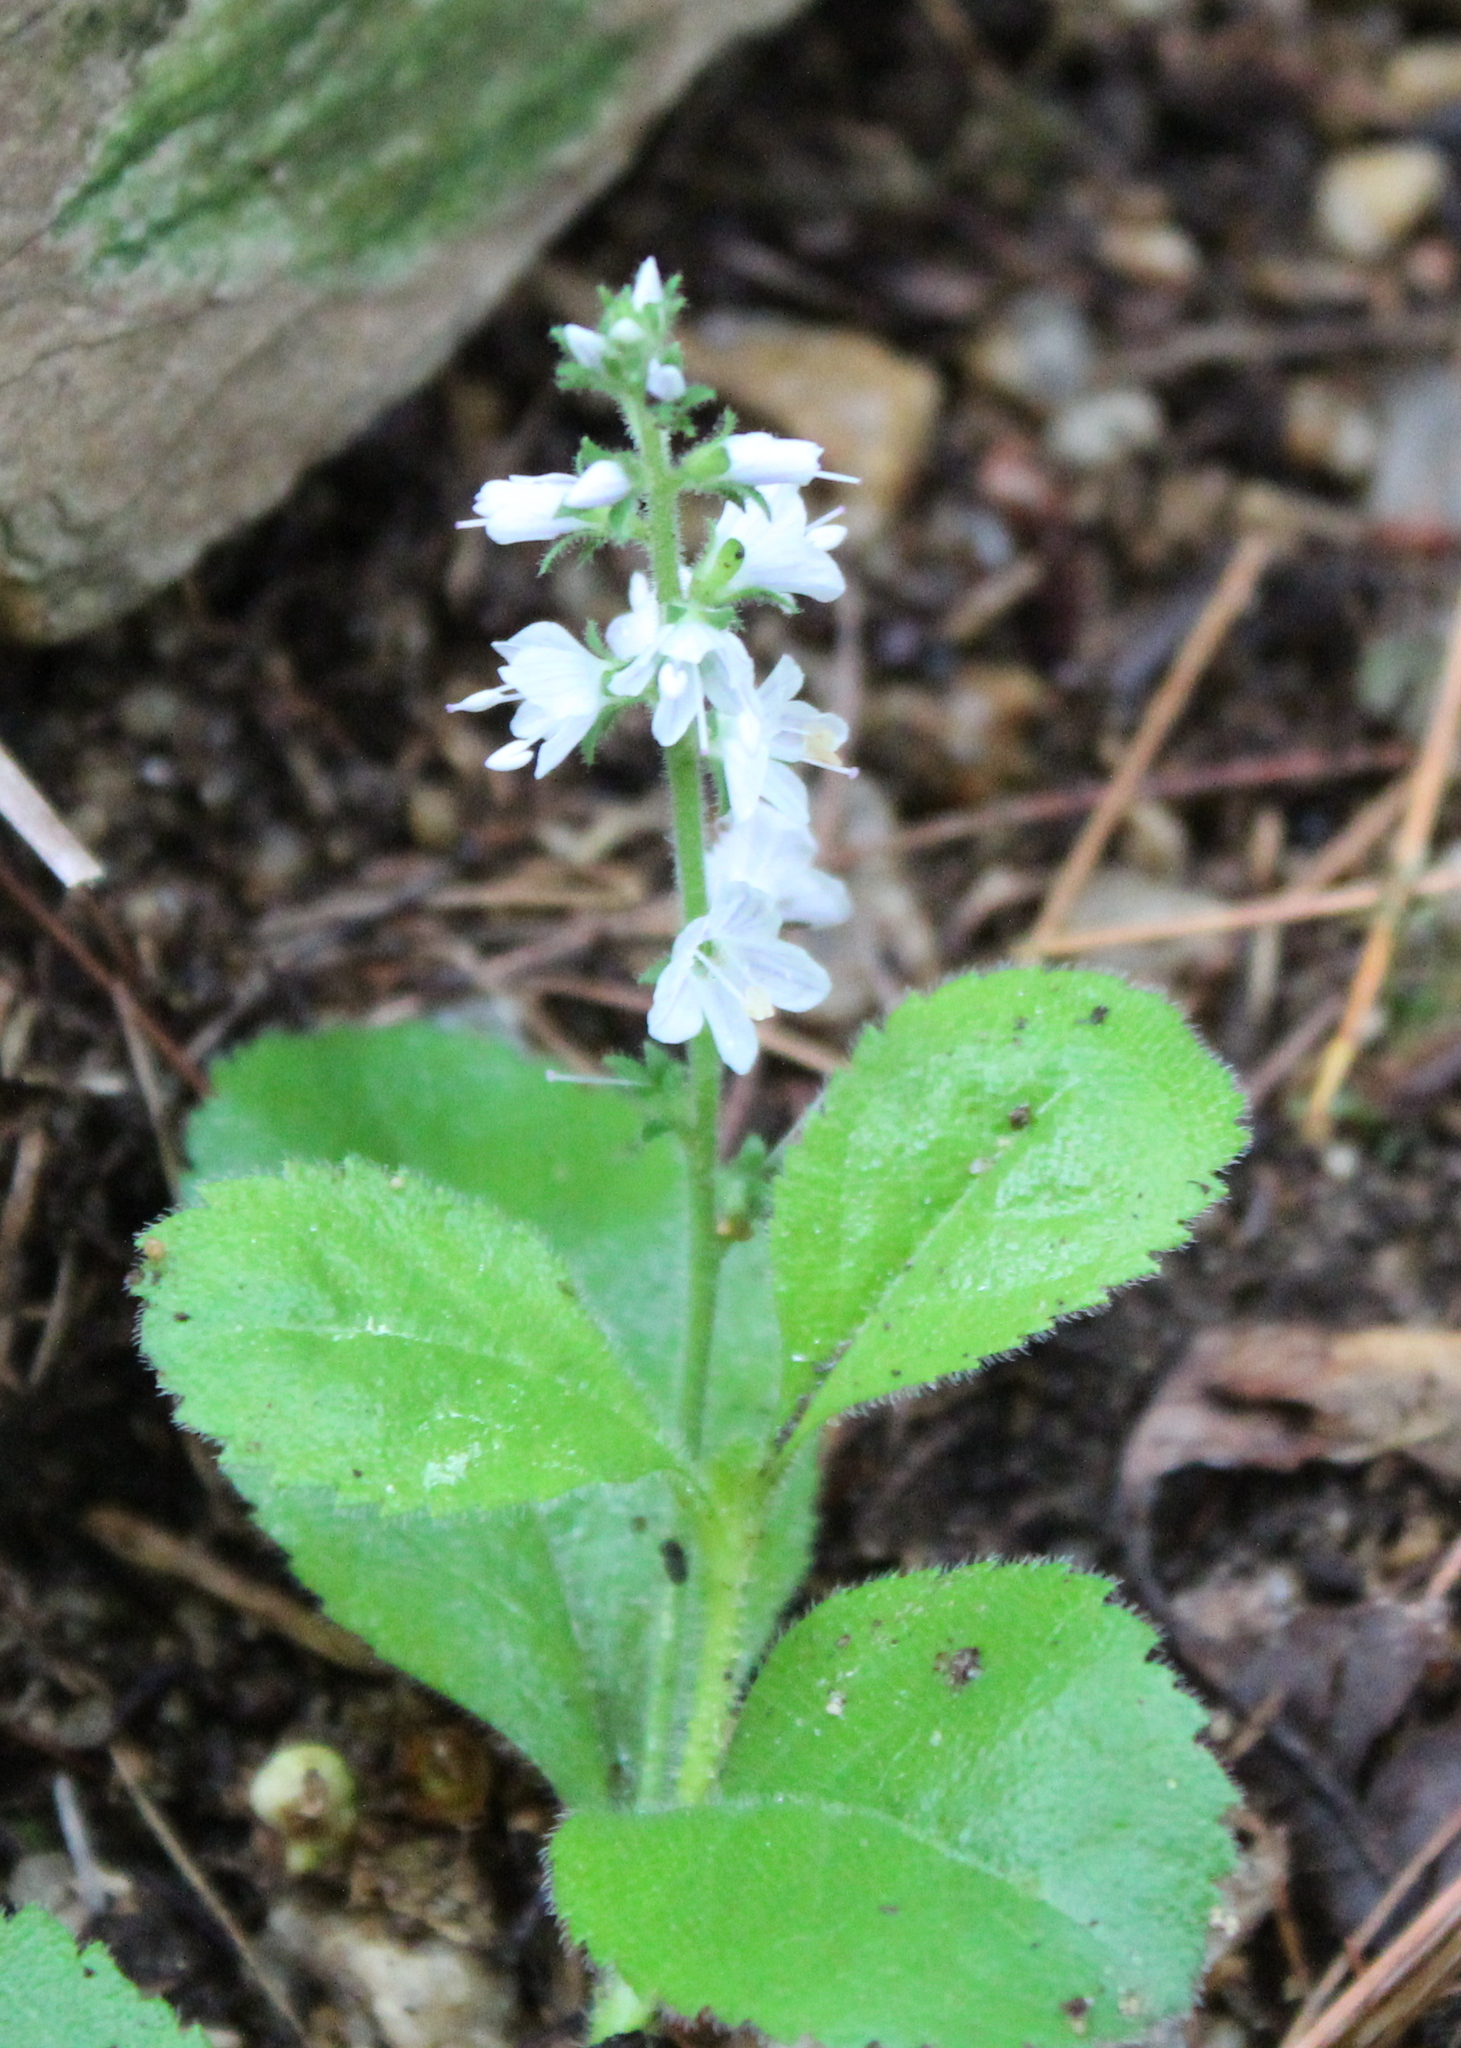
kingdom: Plantae
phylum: Tracheophyta
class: Magnoliopsida
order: Lamiales
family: Plantaginaceae
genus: Veronica
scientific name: Veronica officinalis
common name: Common speedwell
